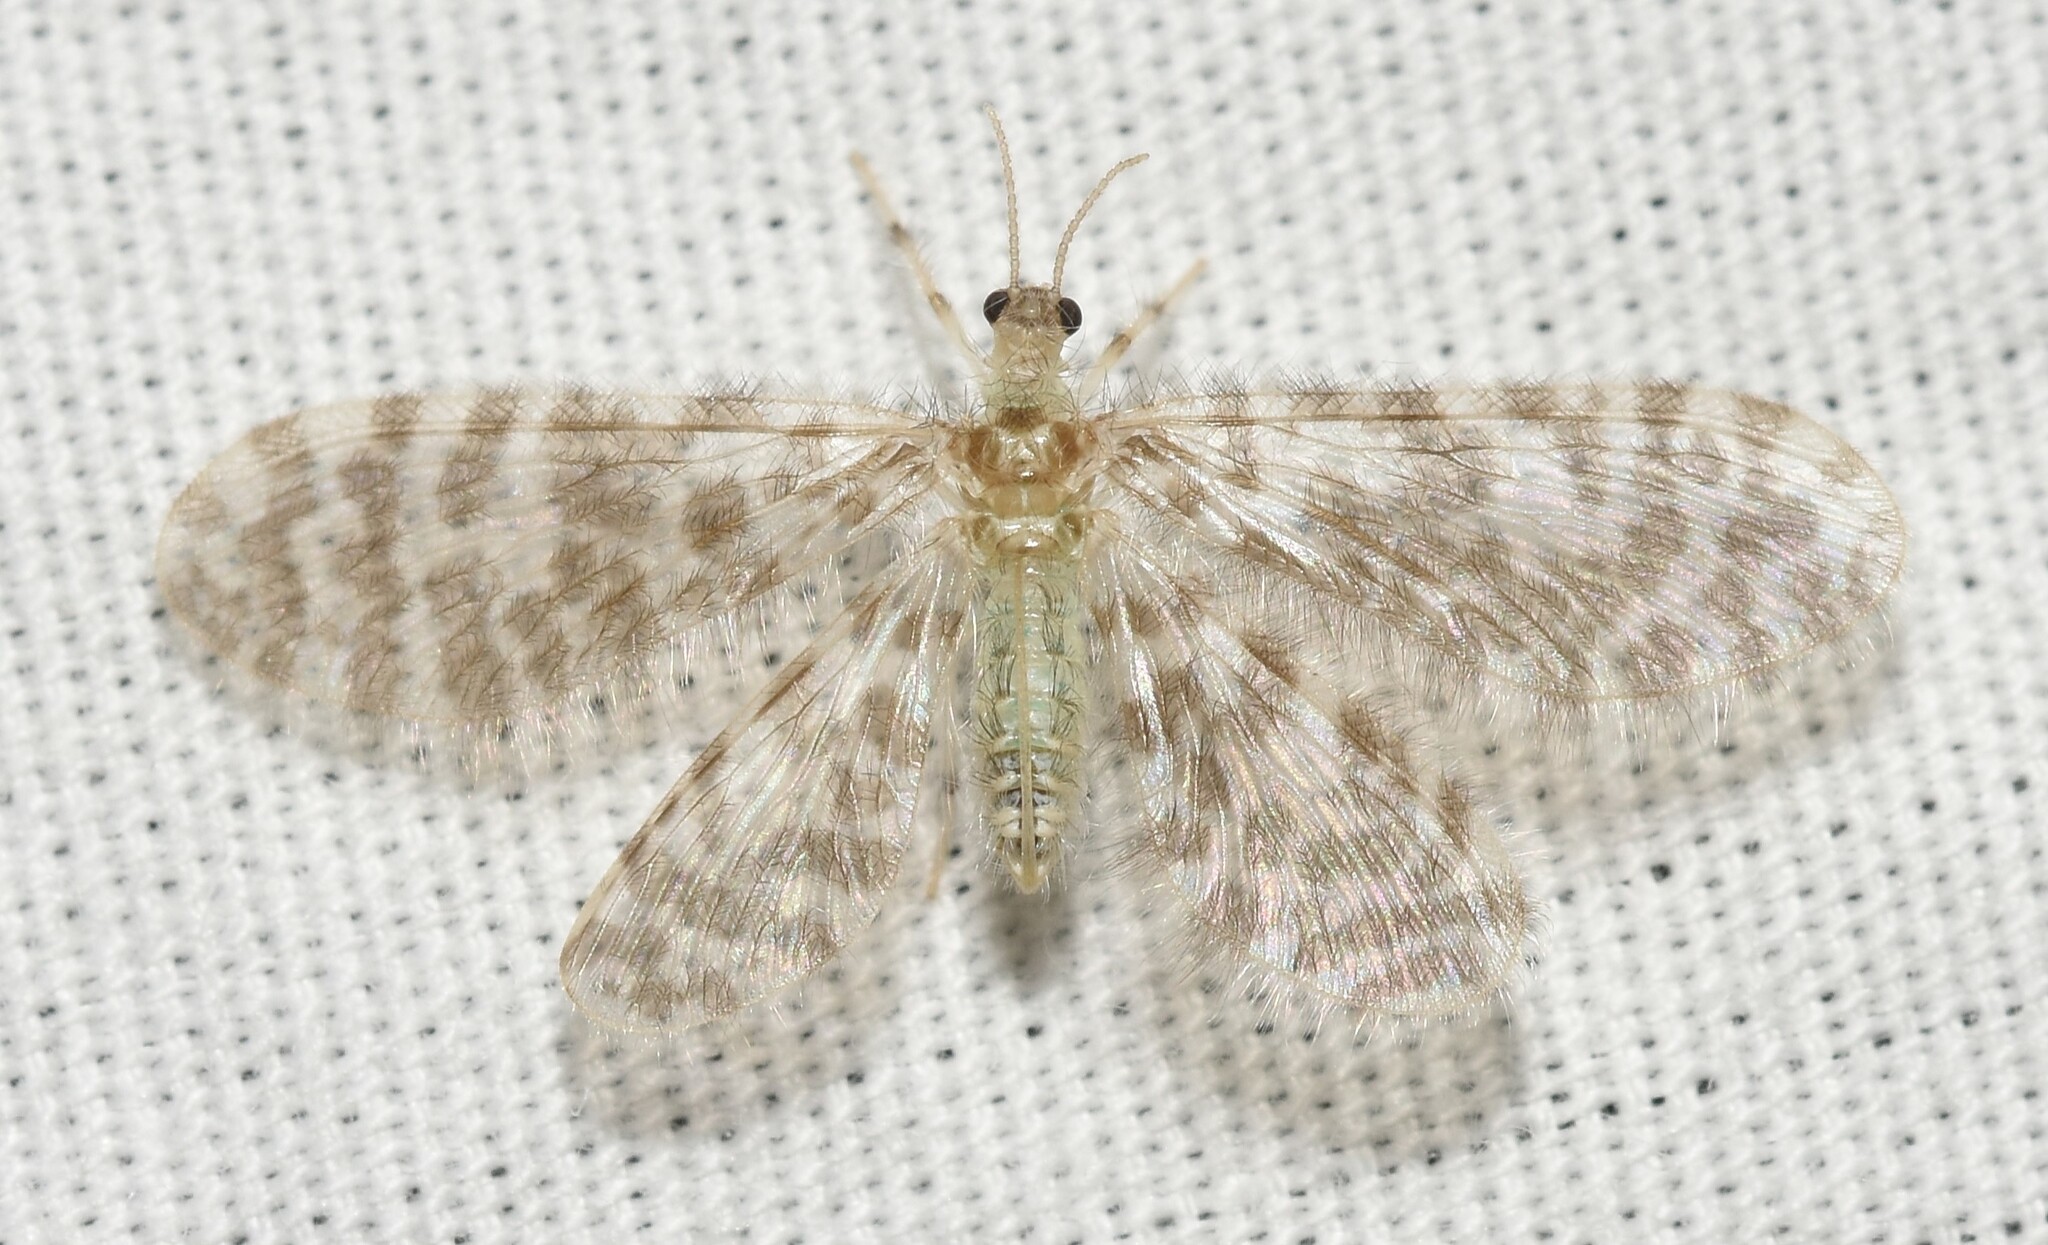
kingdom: Animalia
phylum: Arthropoda
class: Insecta
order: Neuroptera
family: Dilaridae
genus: Nallachius
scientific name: Nallachius americanus
